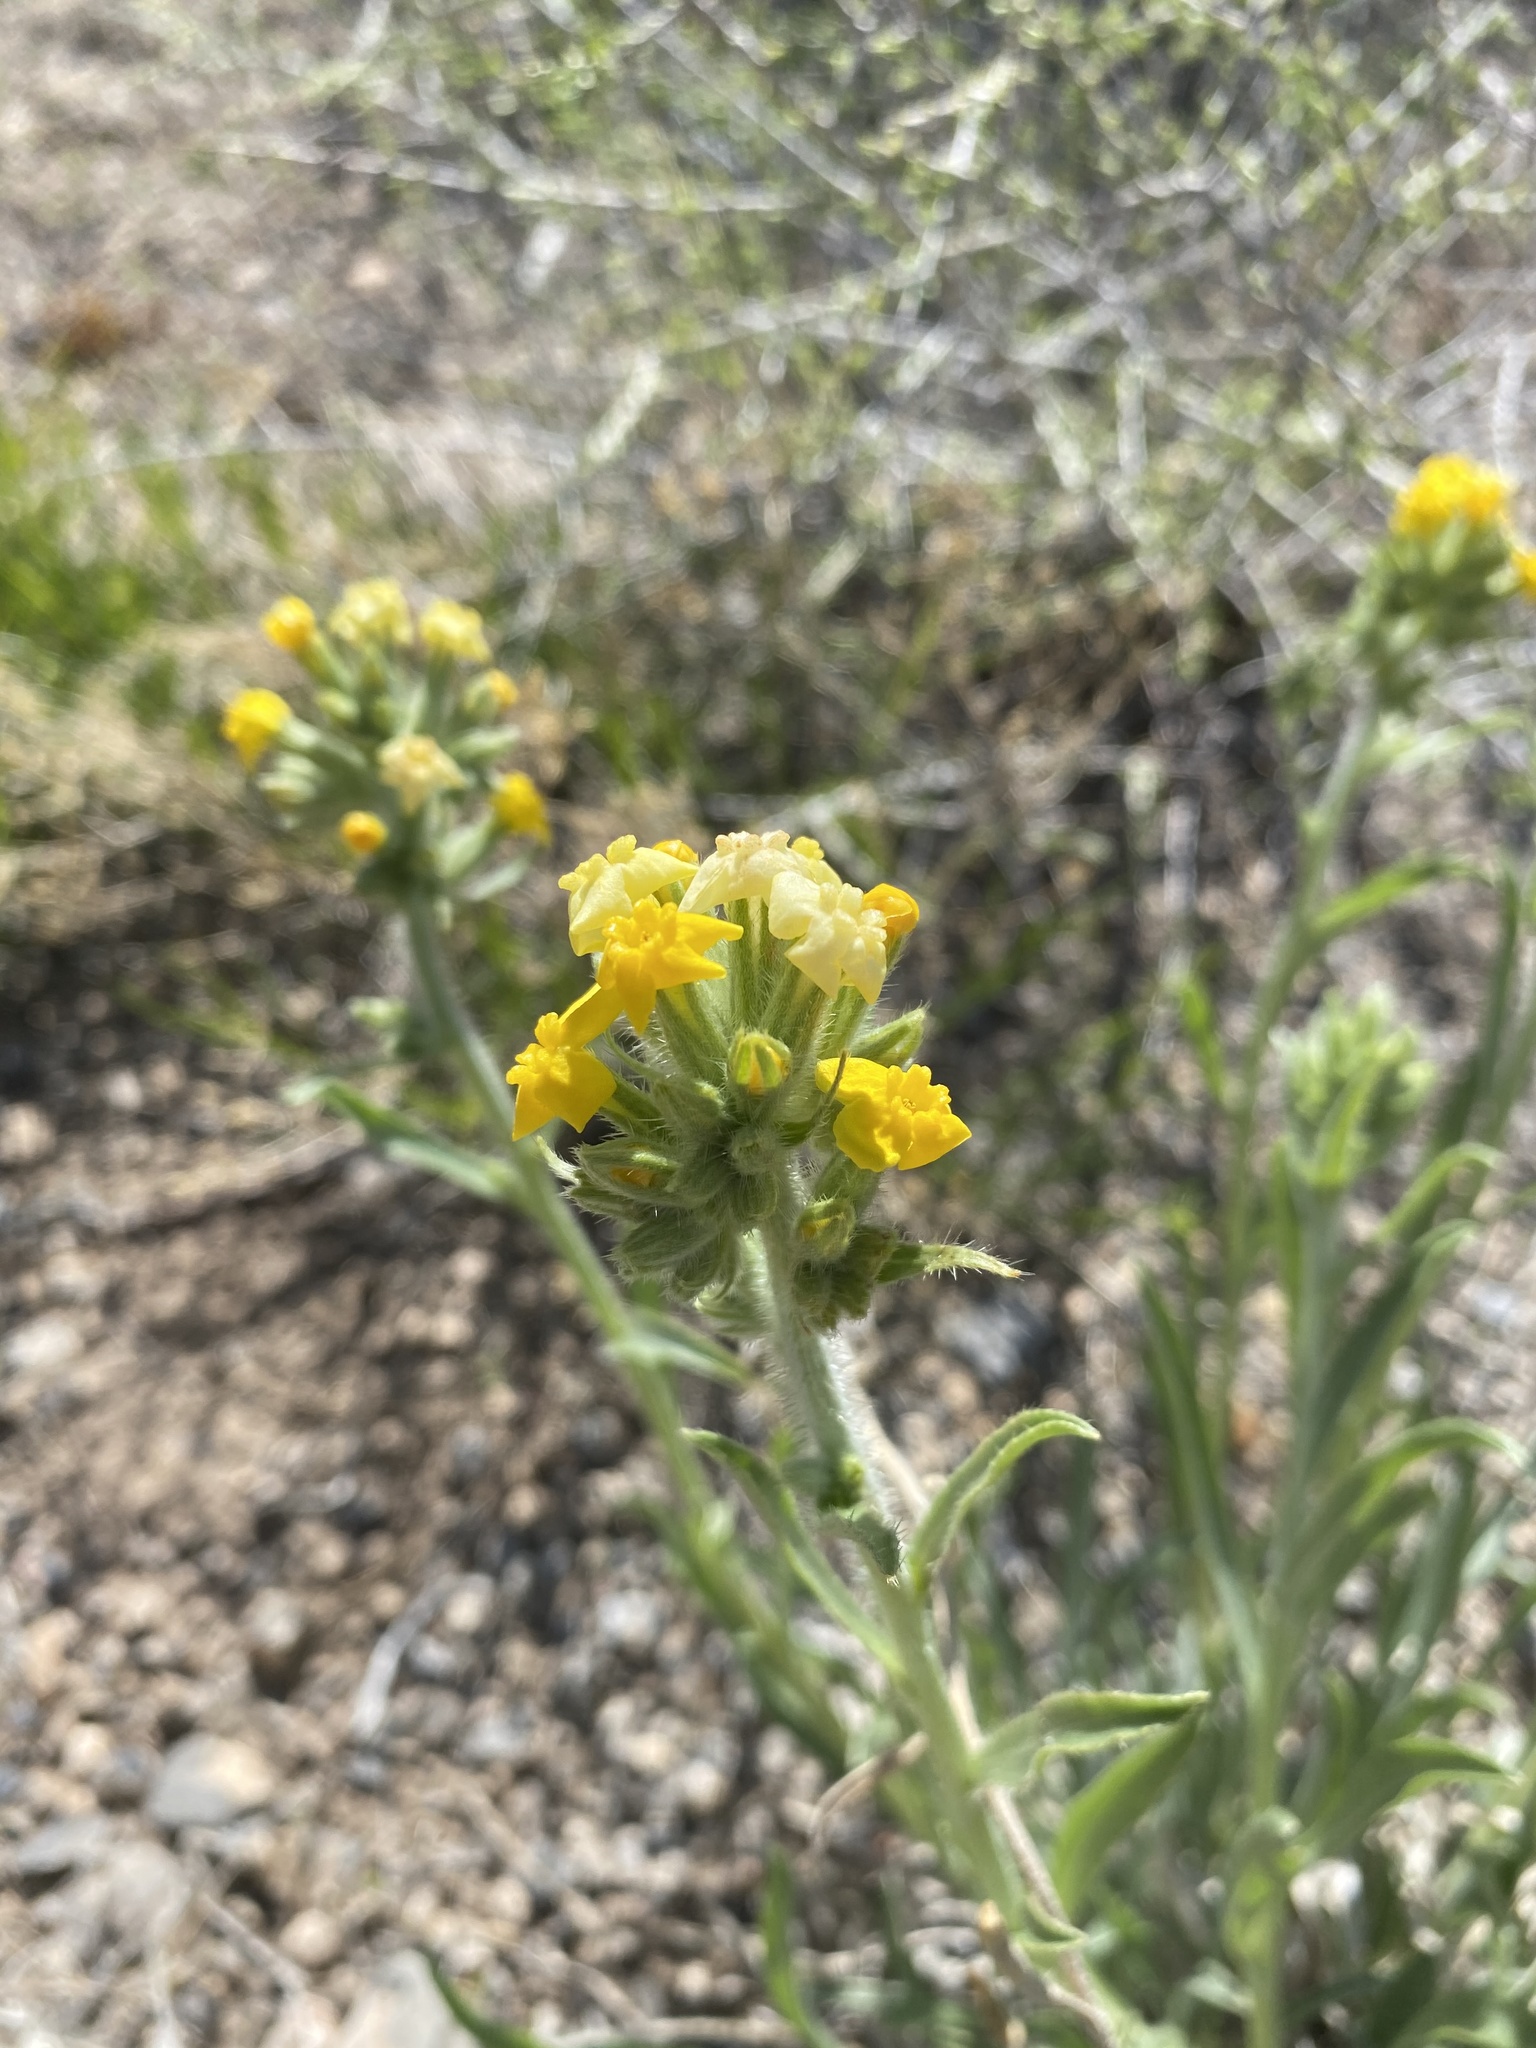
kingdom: Plantae
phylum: Tracheophyta
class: Magnoliopsida
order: Boraginales
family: Boraginaceae
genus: Oreocarya
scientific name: Oreocarya confertiflora
